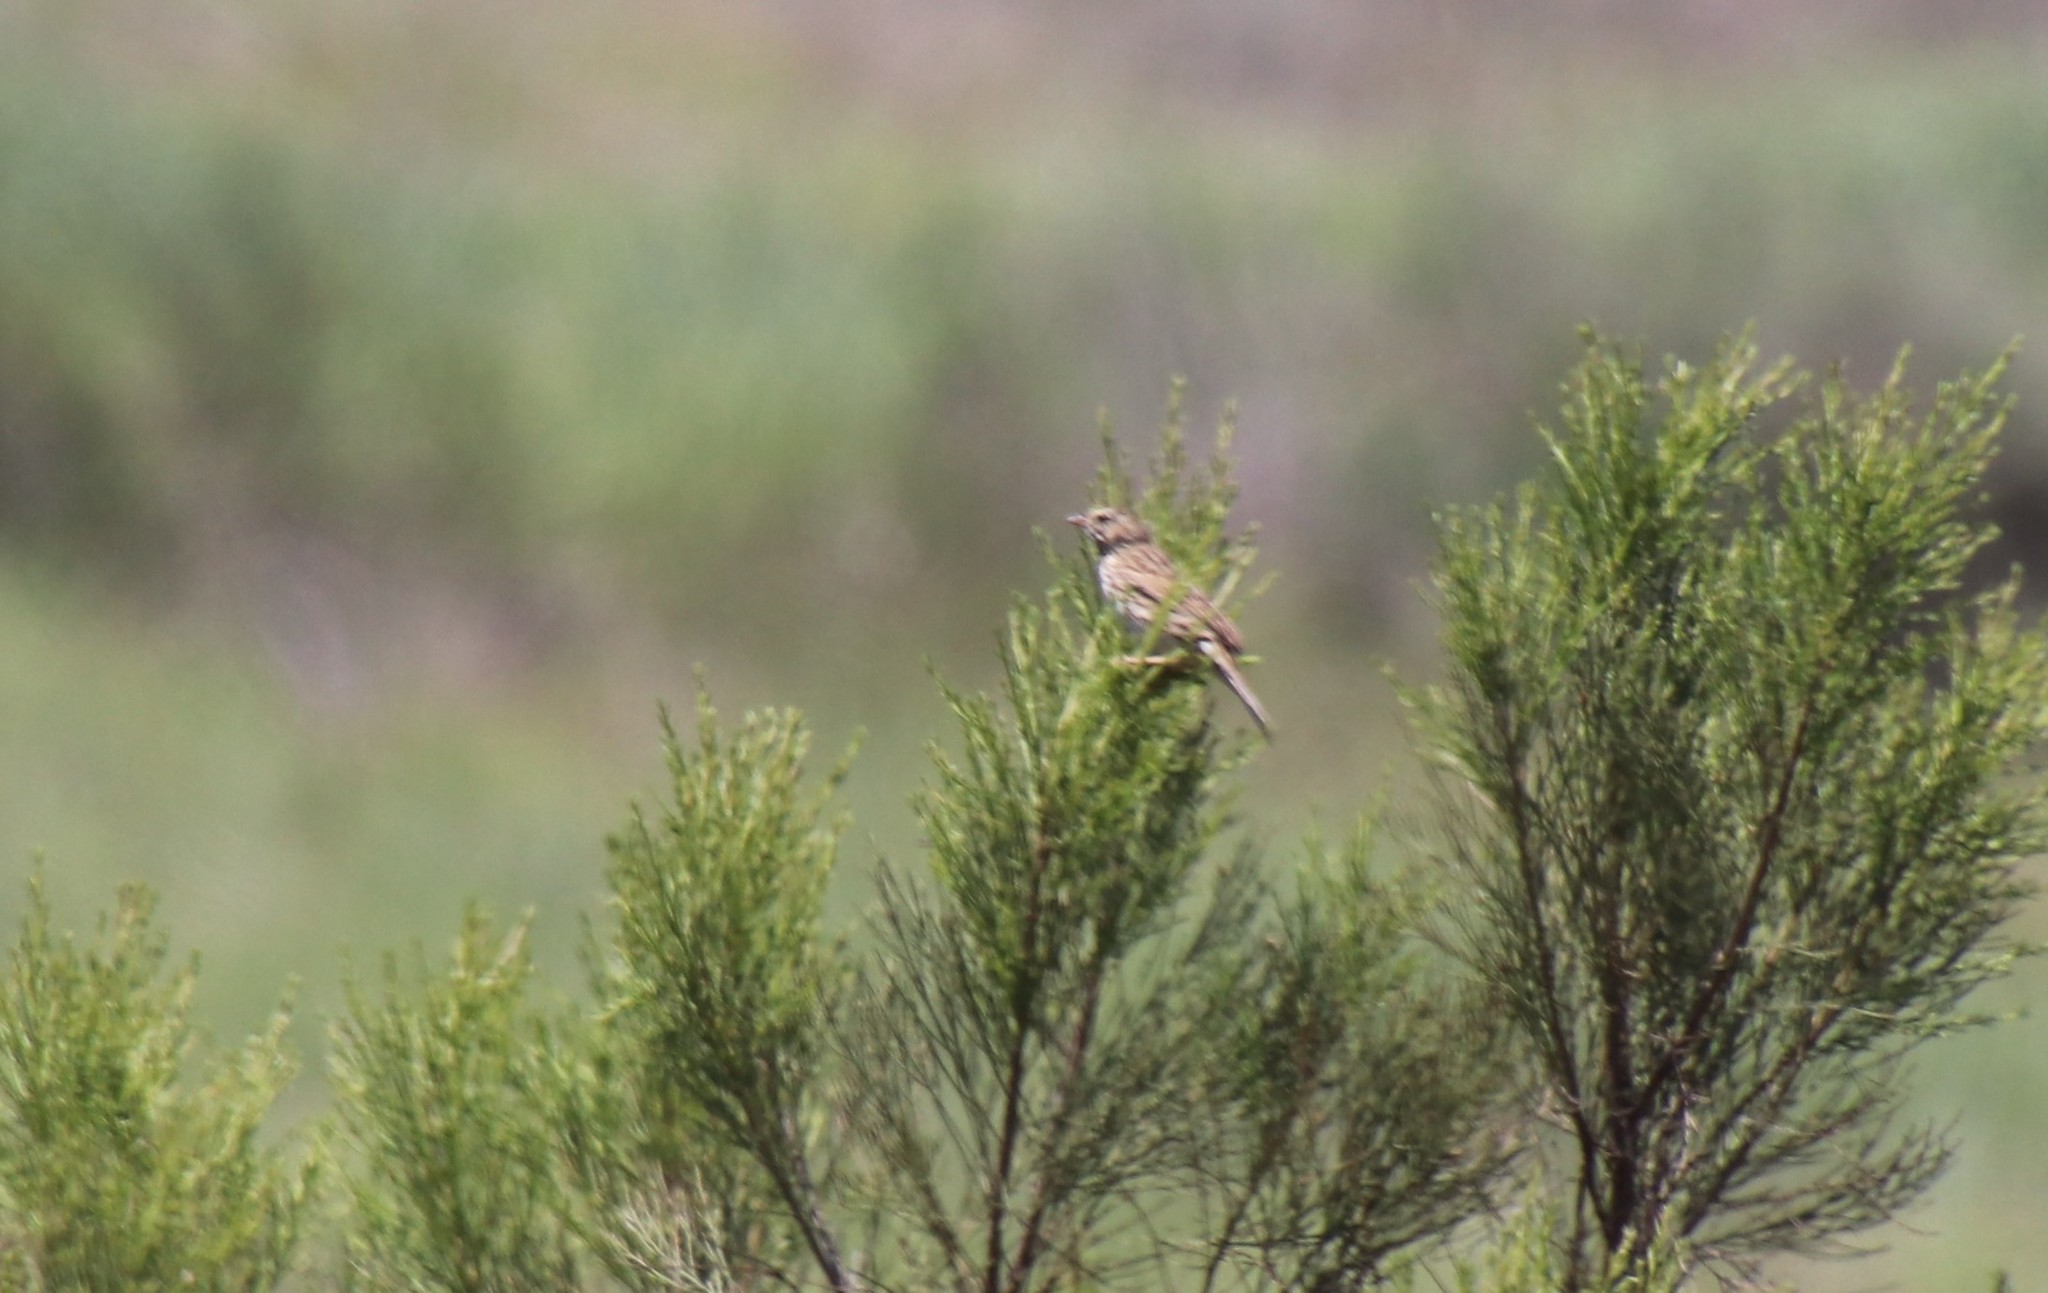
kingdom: Animalia
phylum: Chordata
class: Aves
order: Passeriformes
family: Passerellidae
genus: Passerculus
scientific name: Passerculus sandwichensis
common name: Savannah sparrow
